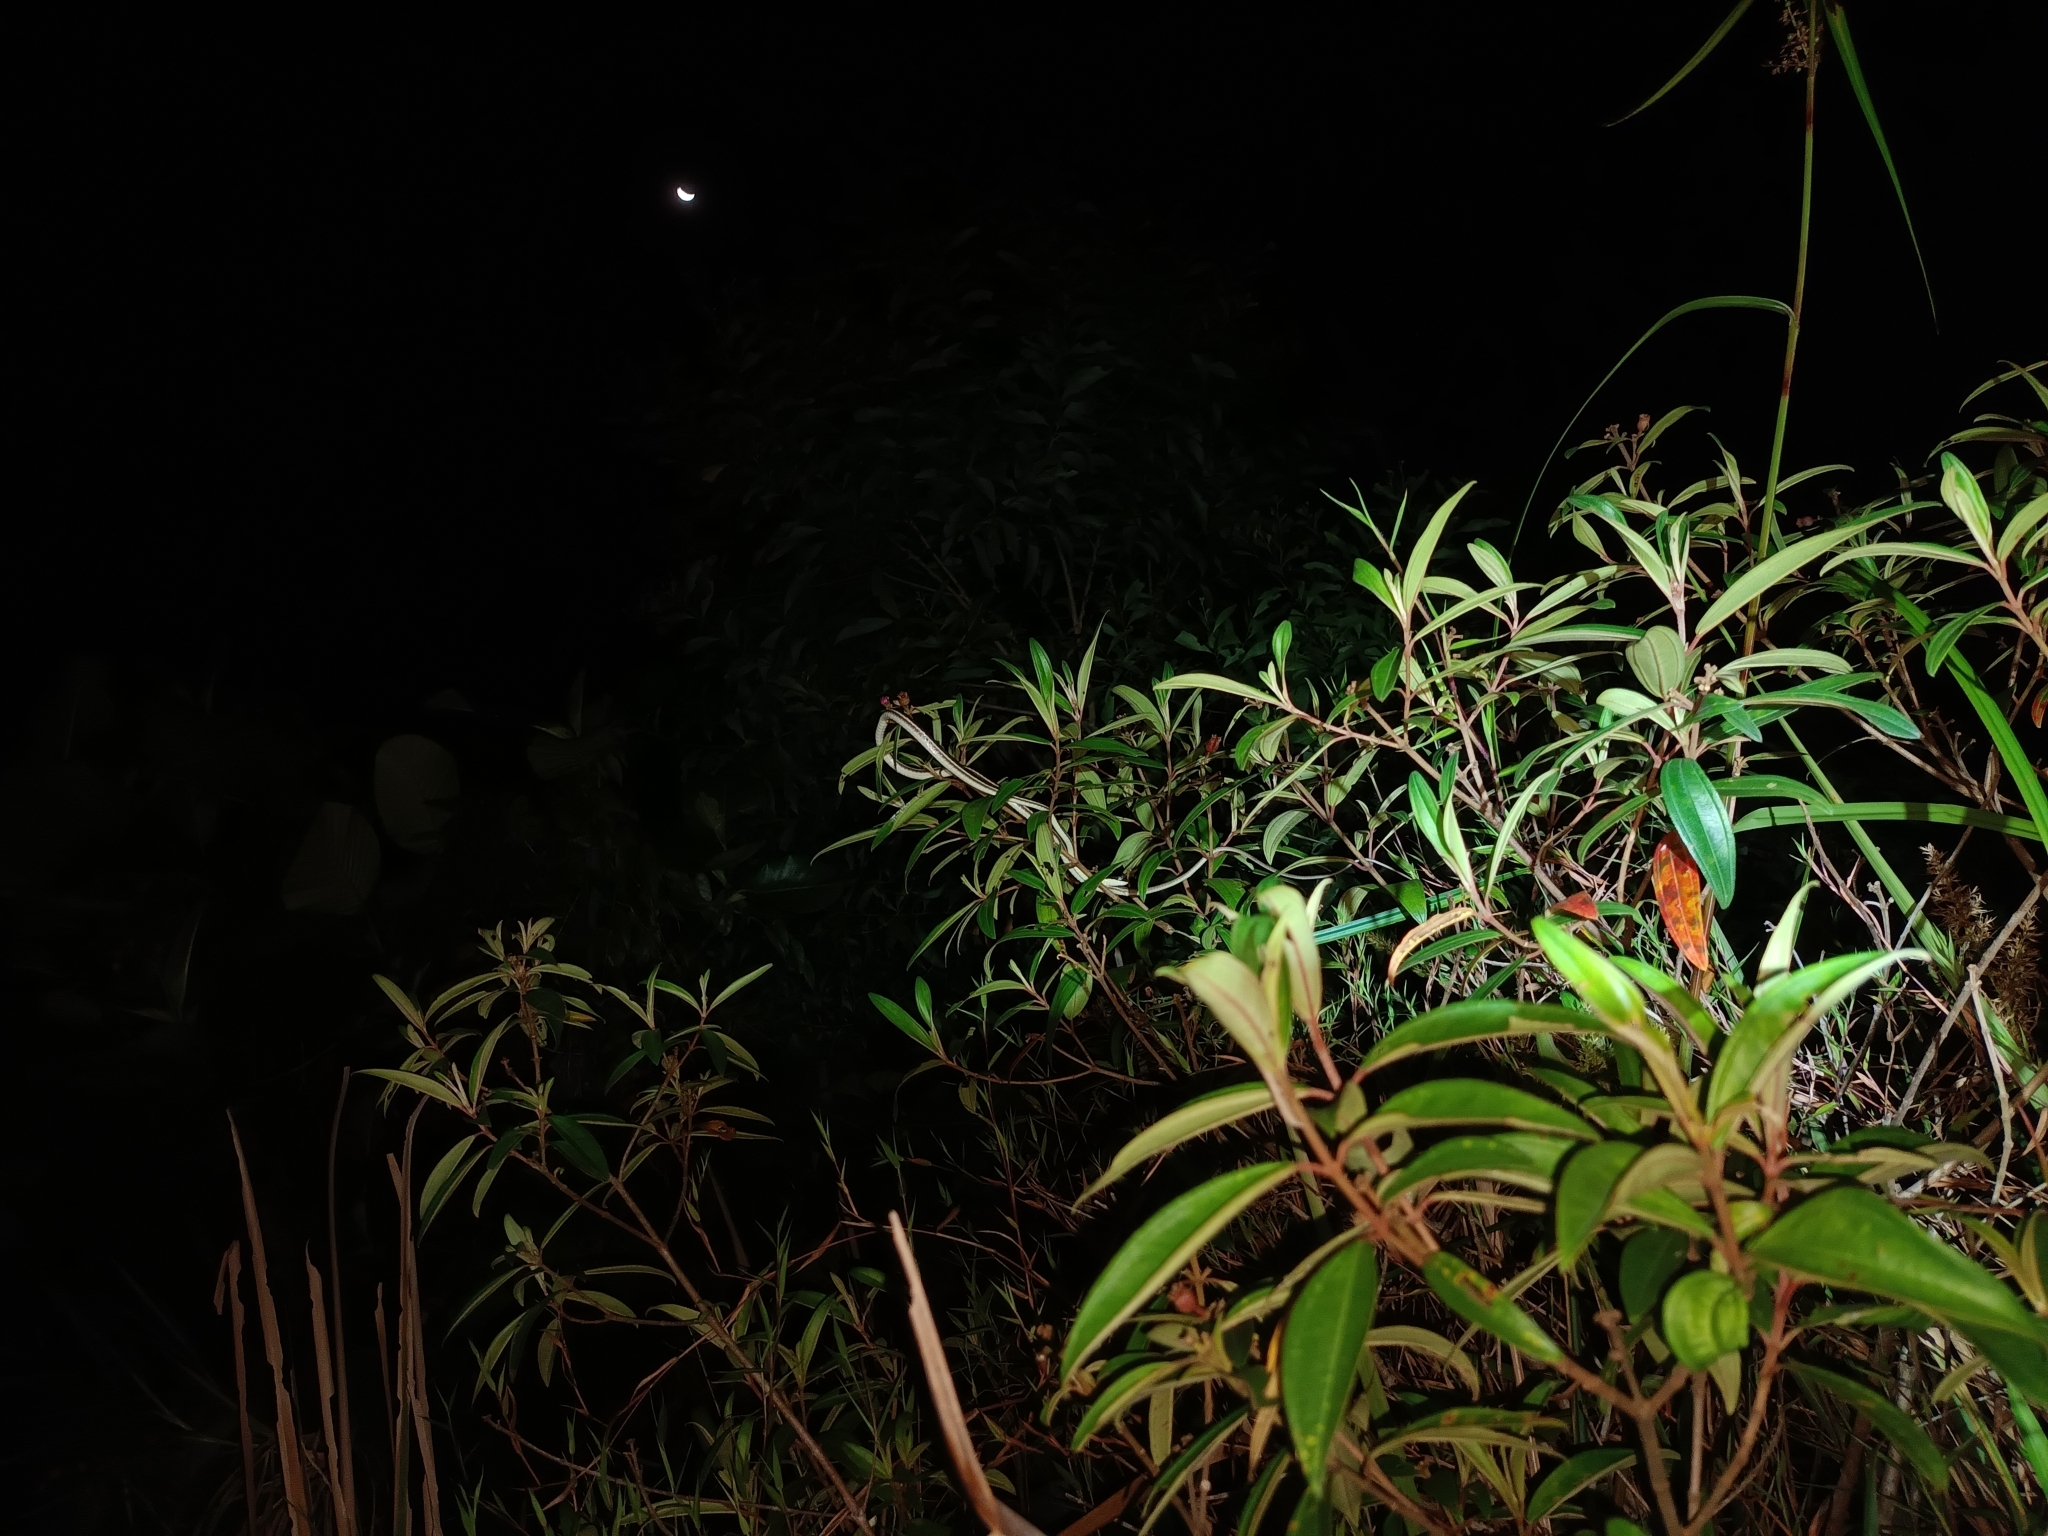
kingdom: Animalia
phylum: Chordata
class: Squamata
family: Colubridae
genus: Dendrelaphis
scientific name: Dendrelaphis pictus
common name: Indonesian bronze-back
